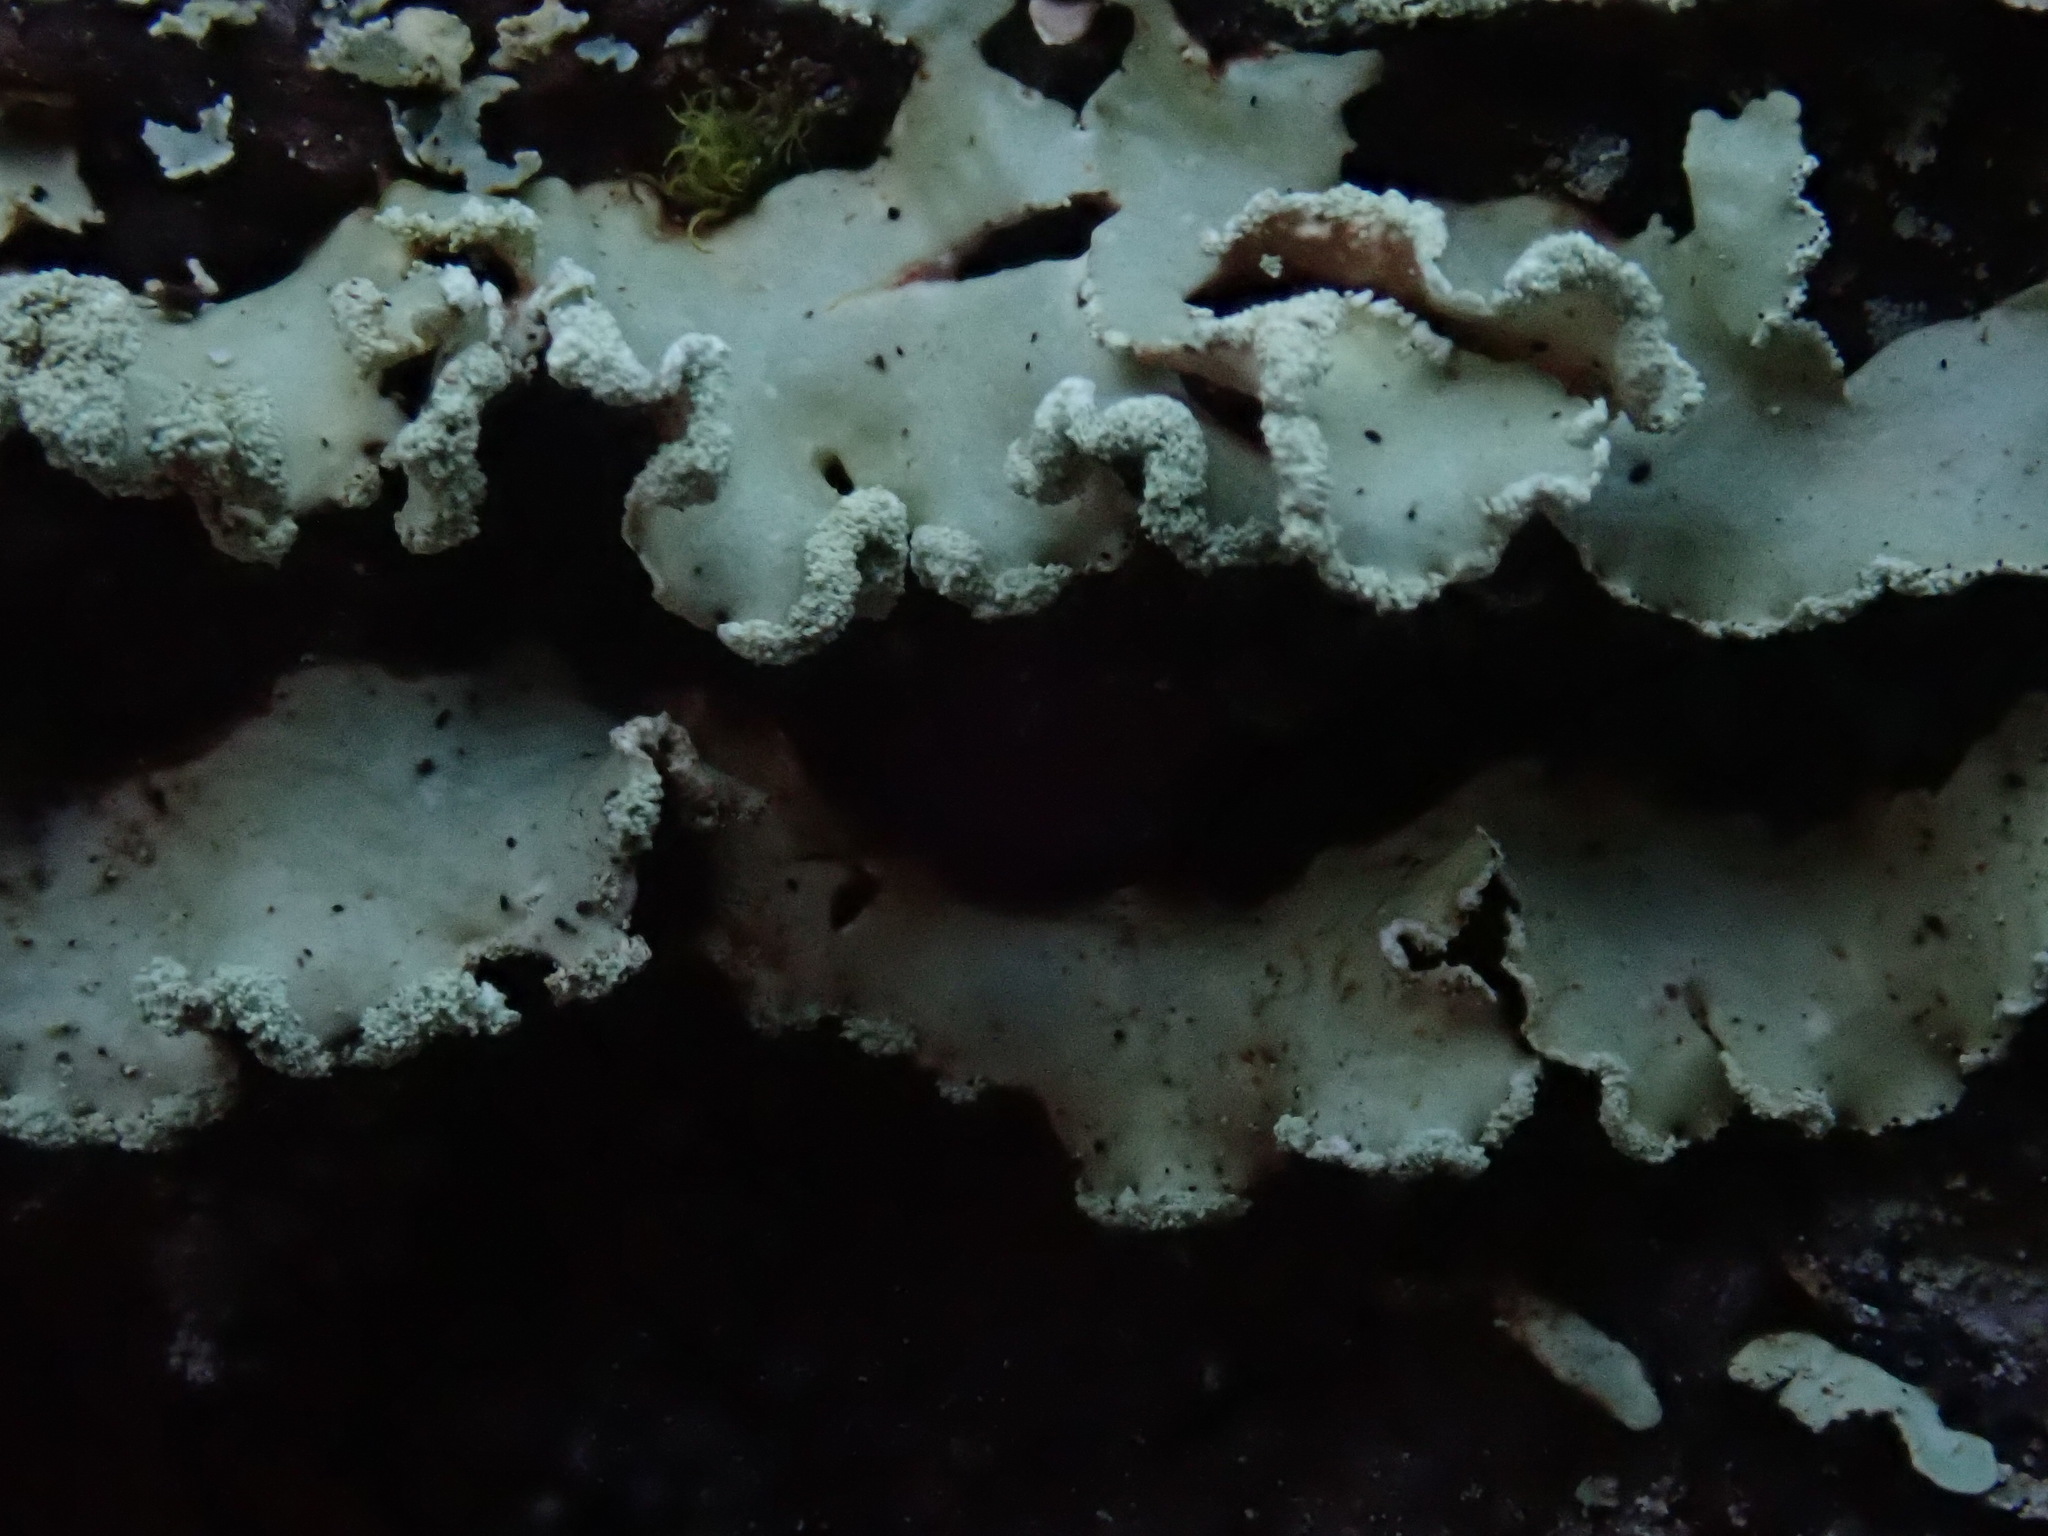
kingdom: Fungi
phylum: Ascomycota
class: Lecanoromycetes
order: Lecanorales
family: Parmeliaceae
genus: Usnocetraria
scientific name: Usnocetraria oakesiana
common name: Yellow ribbon lichen
